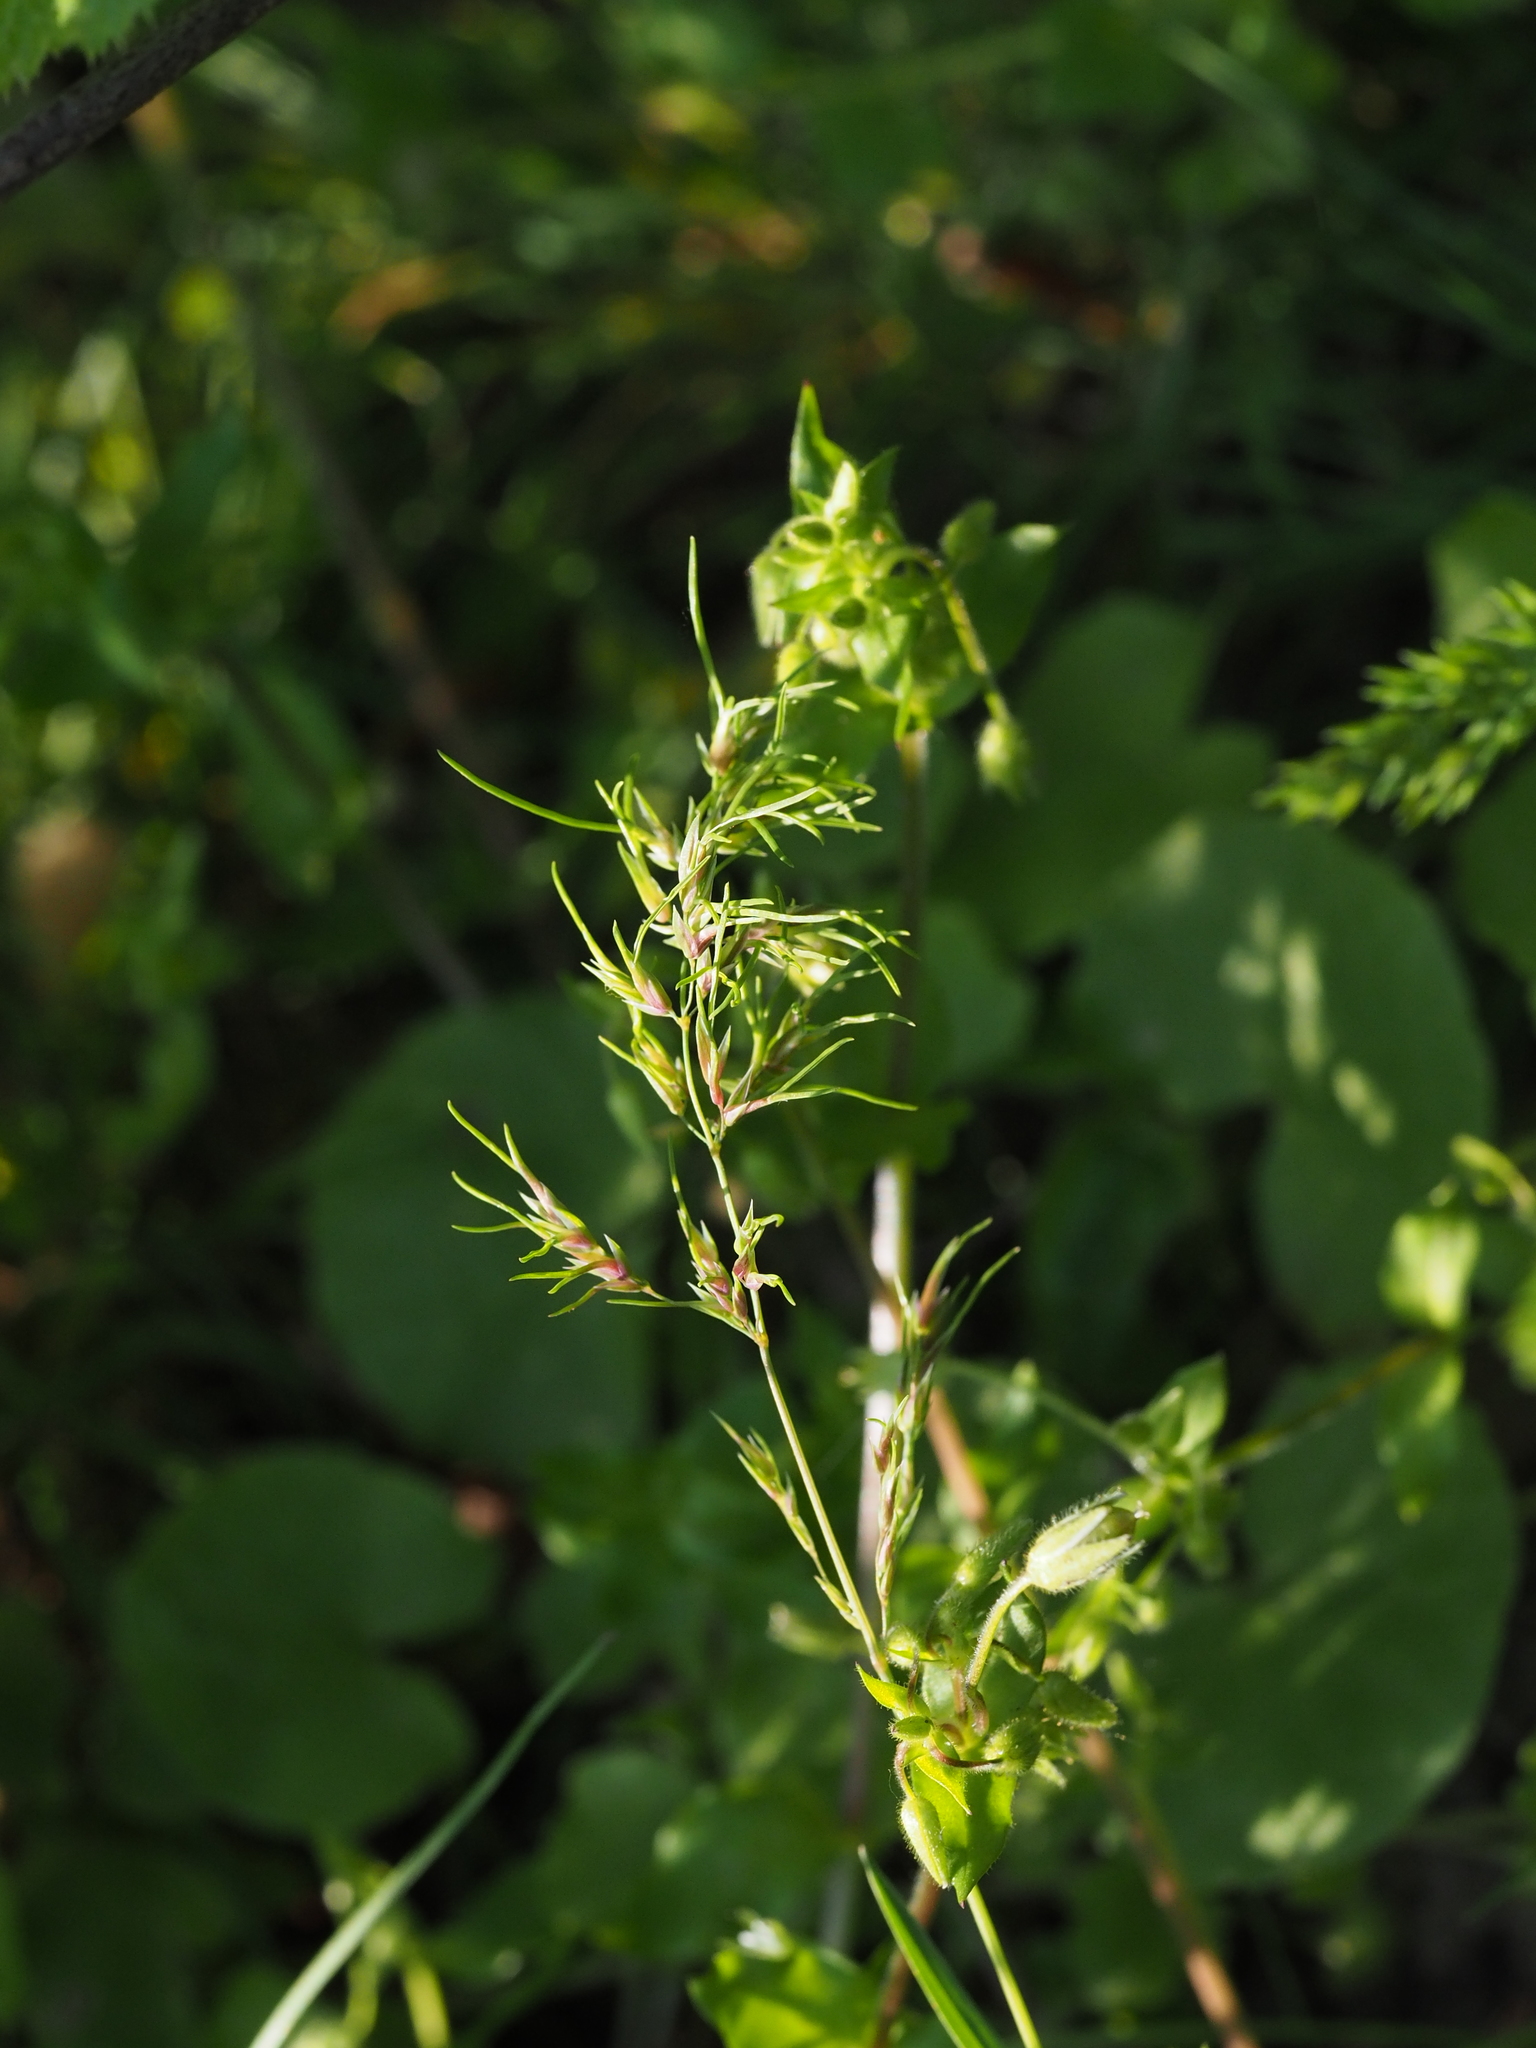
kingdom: Plantae
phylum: Tracheophyta
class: Liliopsida
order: Poales
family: Poaceae
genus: Poa
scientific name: Poa bulbosa
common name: Bulbous bluegrass
